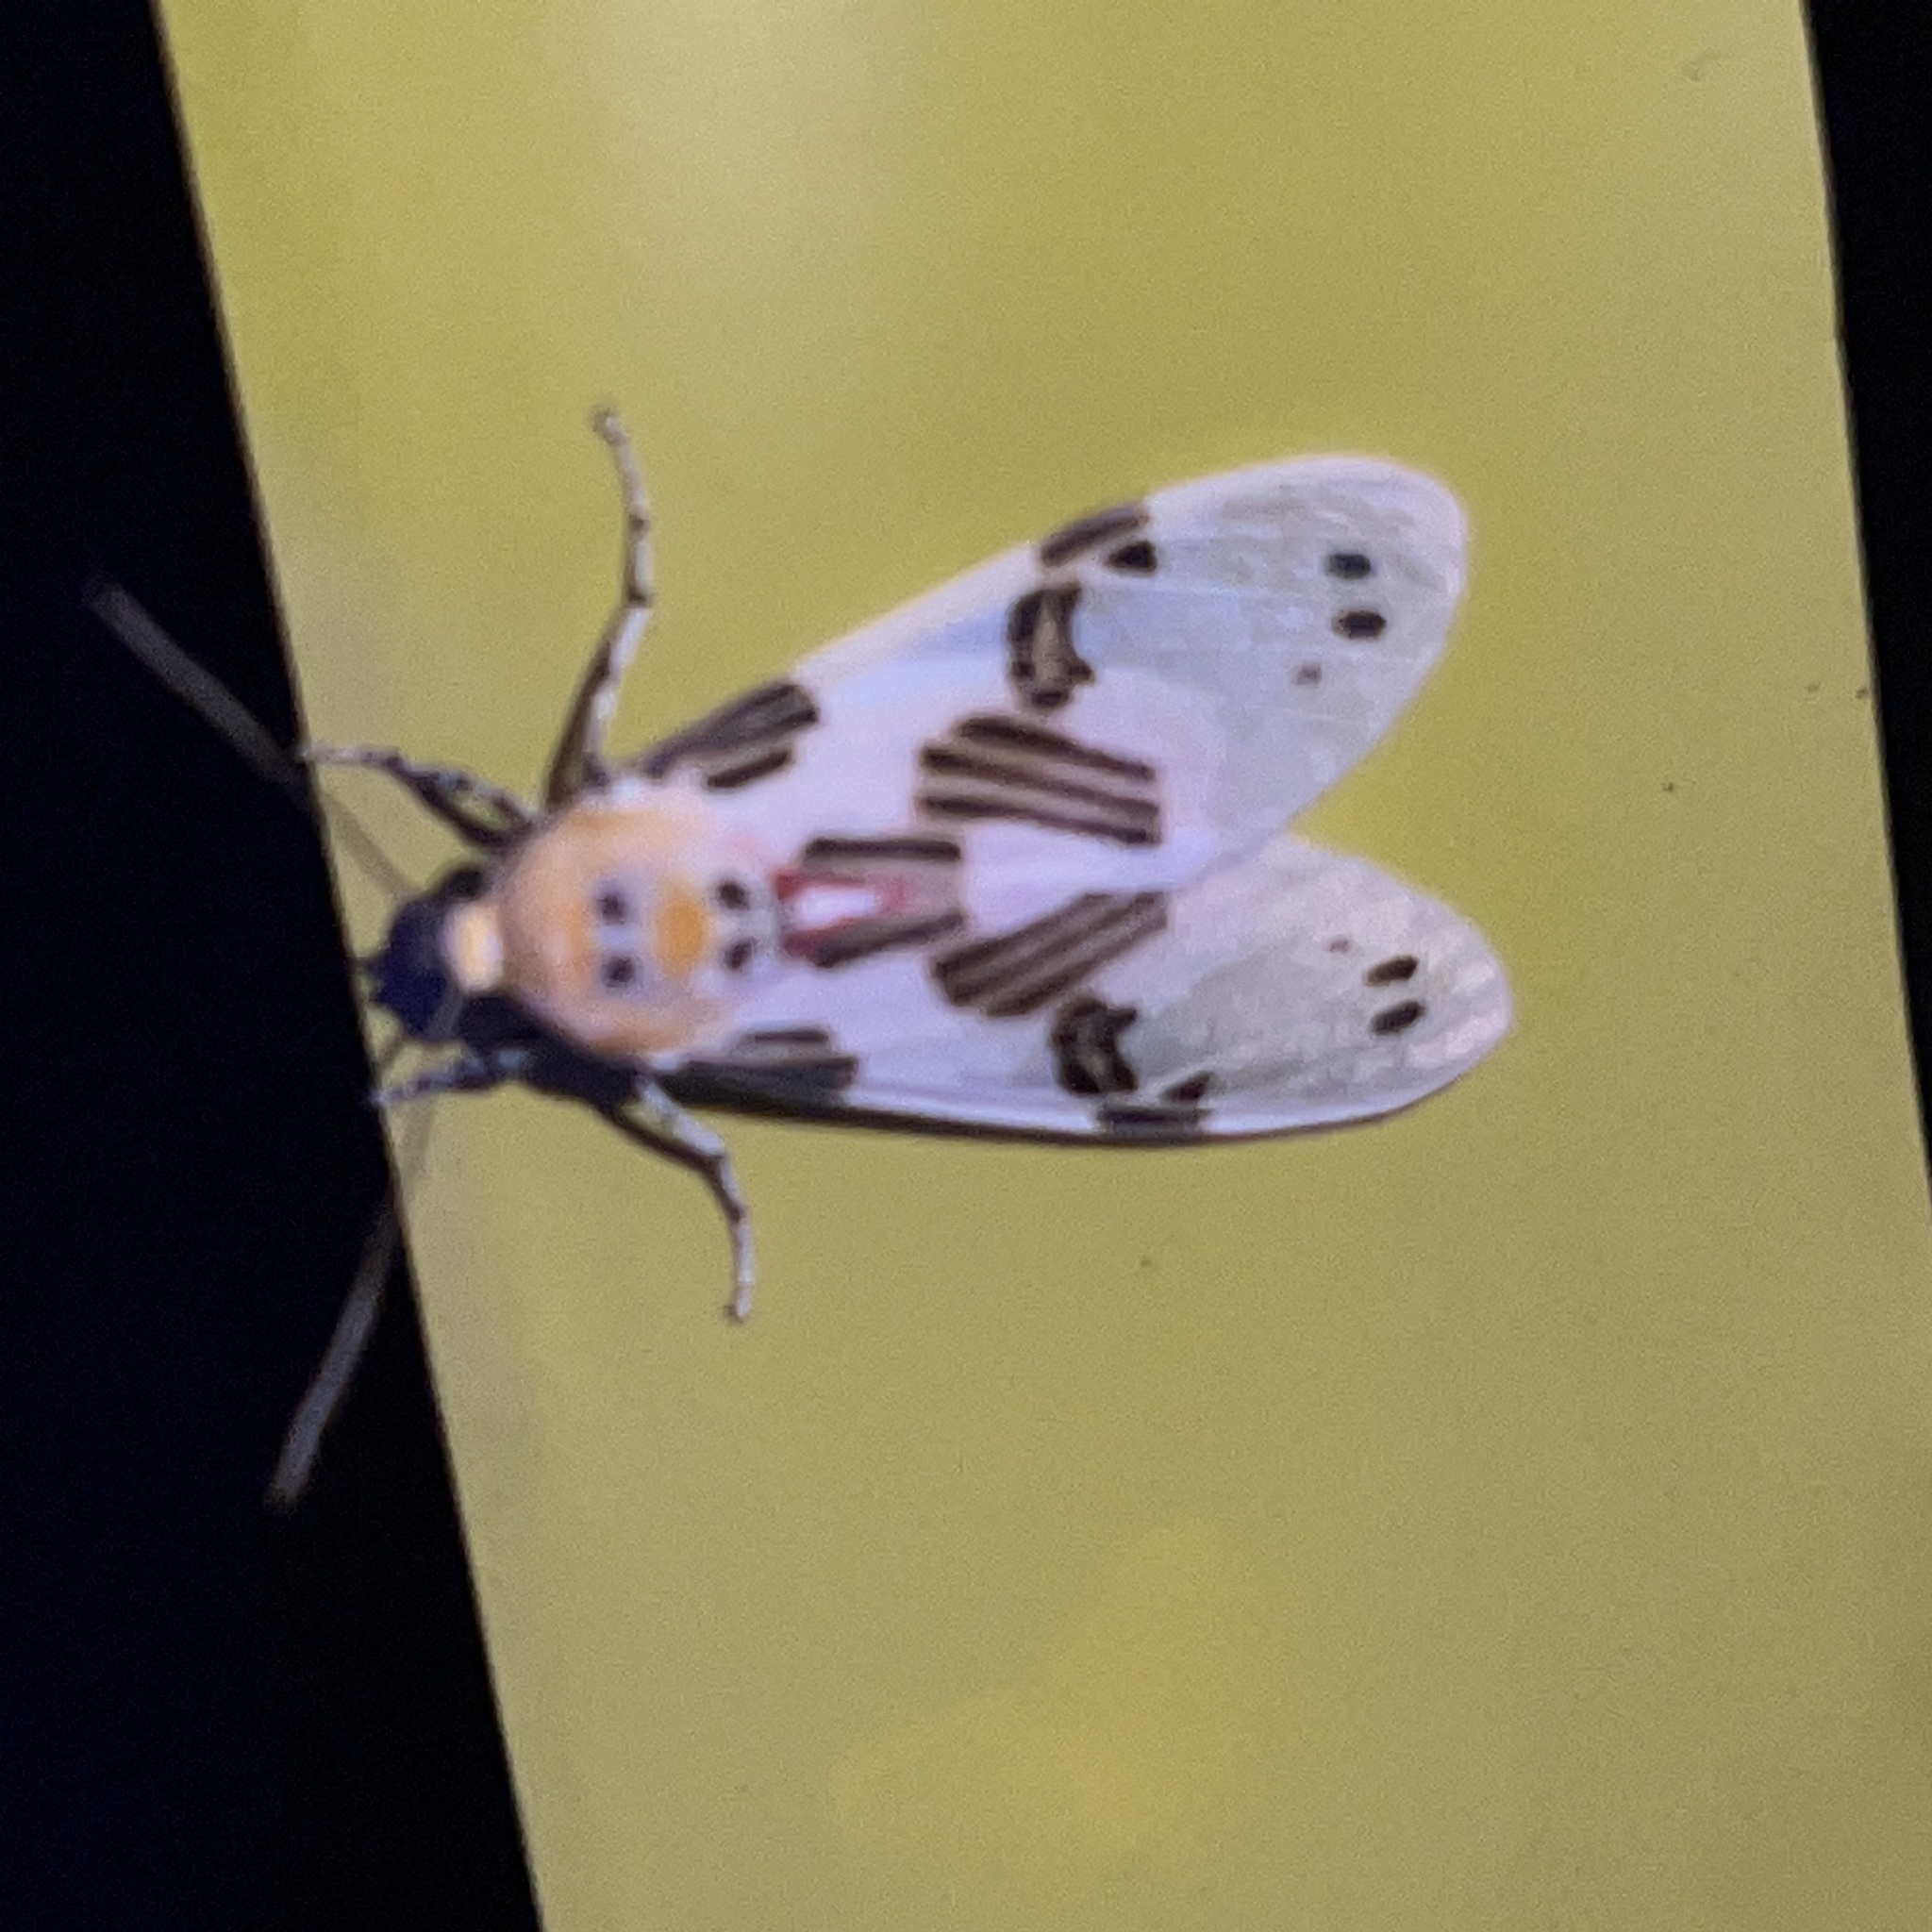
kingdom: Animalia
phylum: Arthropoda
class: Insecta
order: Lepidoptera
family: Erebidae
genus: Utetheisa
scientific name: Utetheisa ornatrix
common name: Beautiful utetheisa
